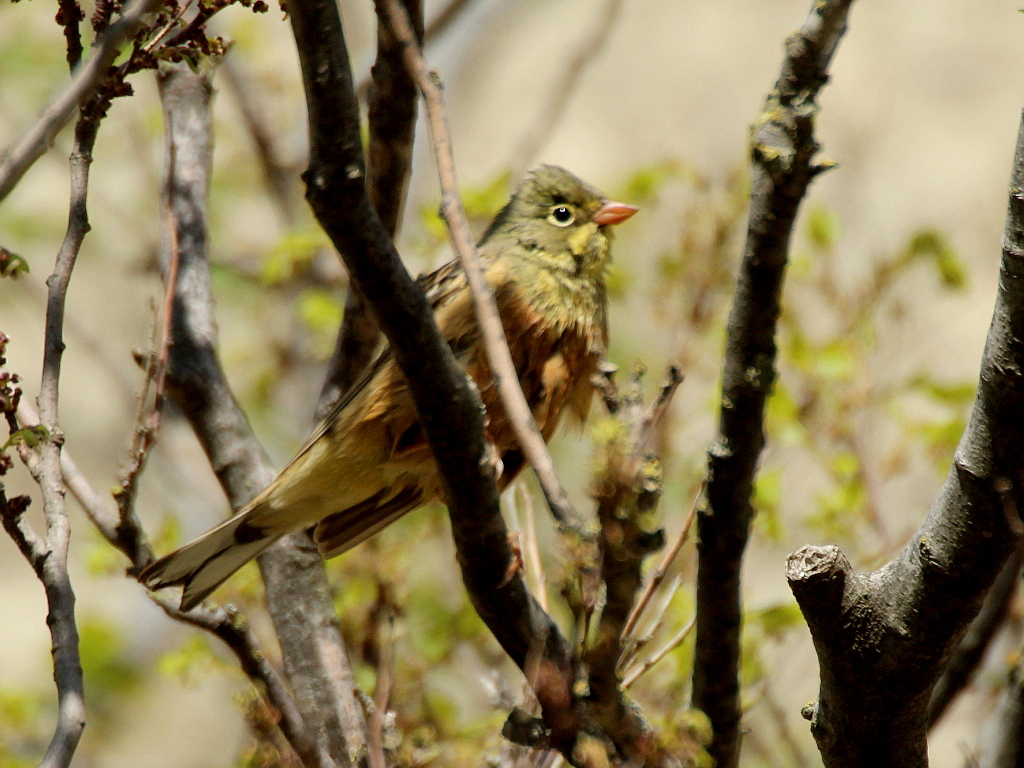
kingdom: Animalia
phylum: Chordata
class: Aves
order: Passeriformes
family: Emberizidae
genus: Emberiza
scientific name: Emberiza hortulana
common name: Ortolan bunting
